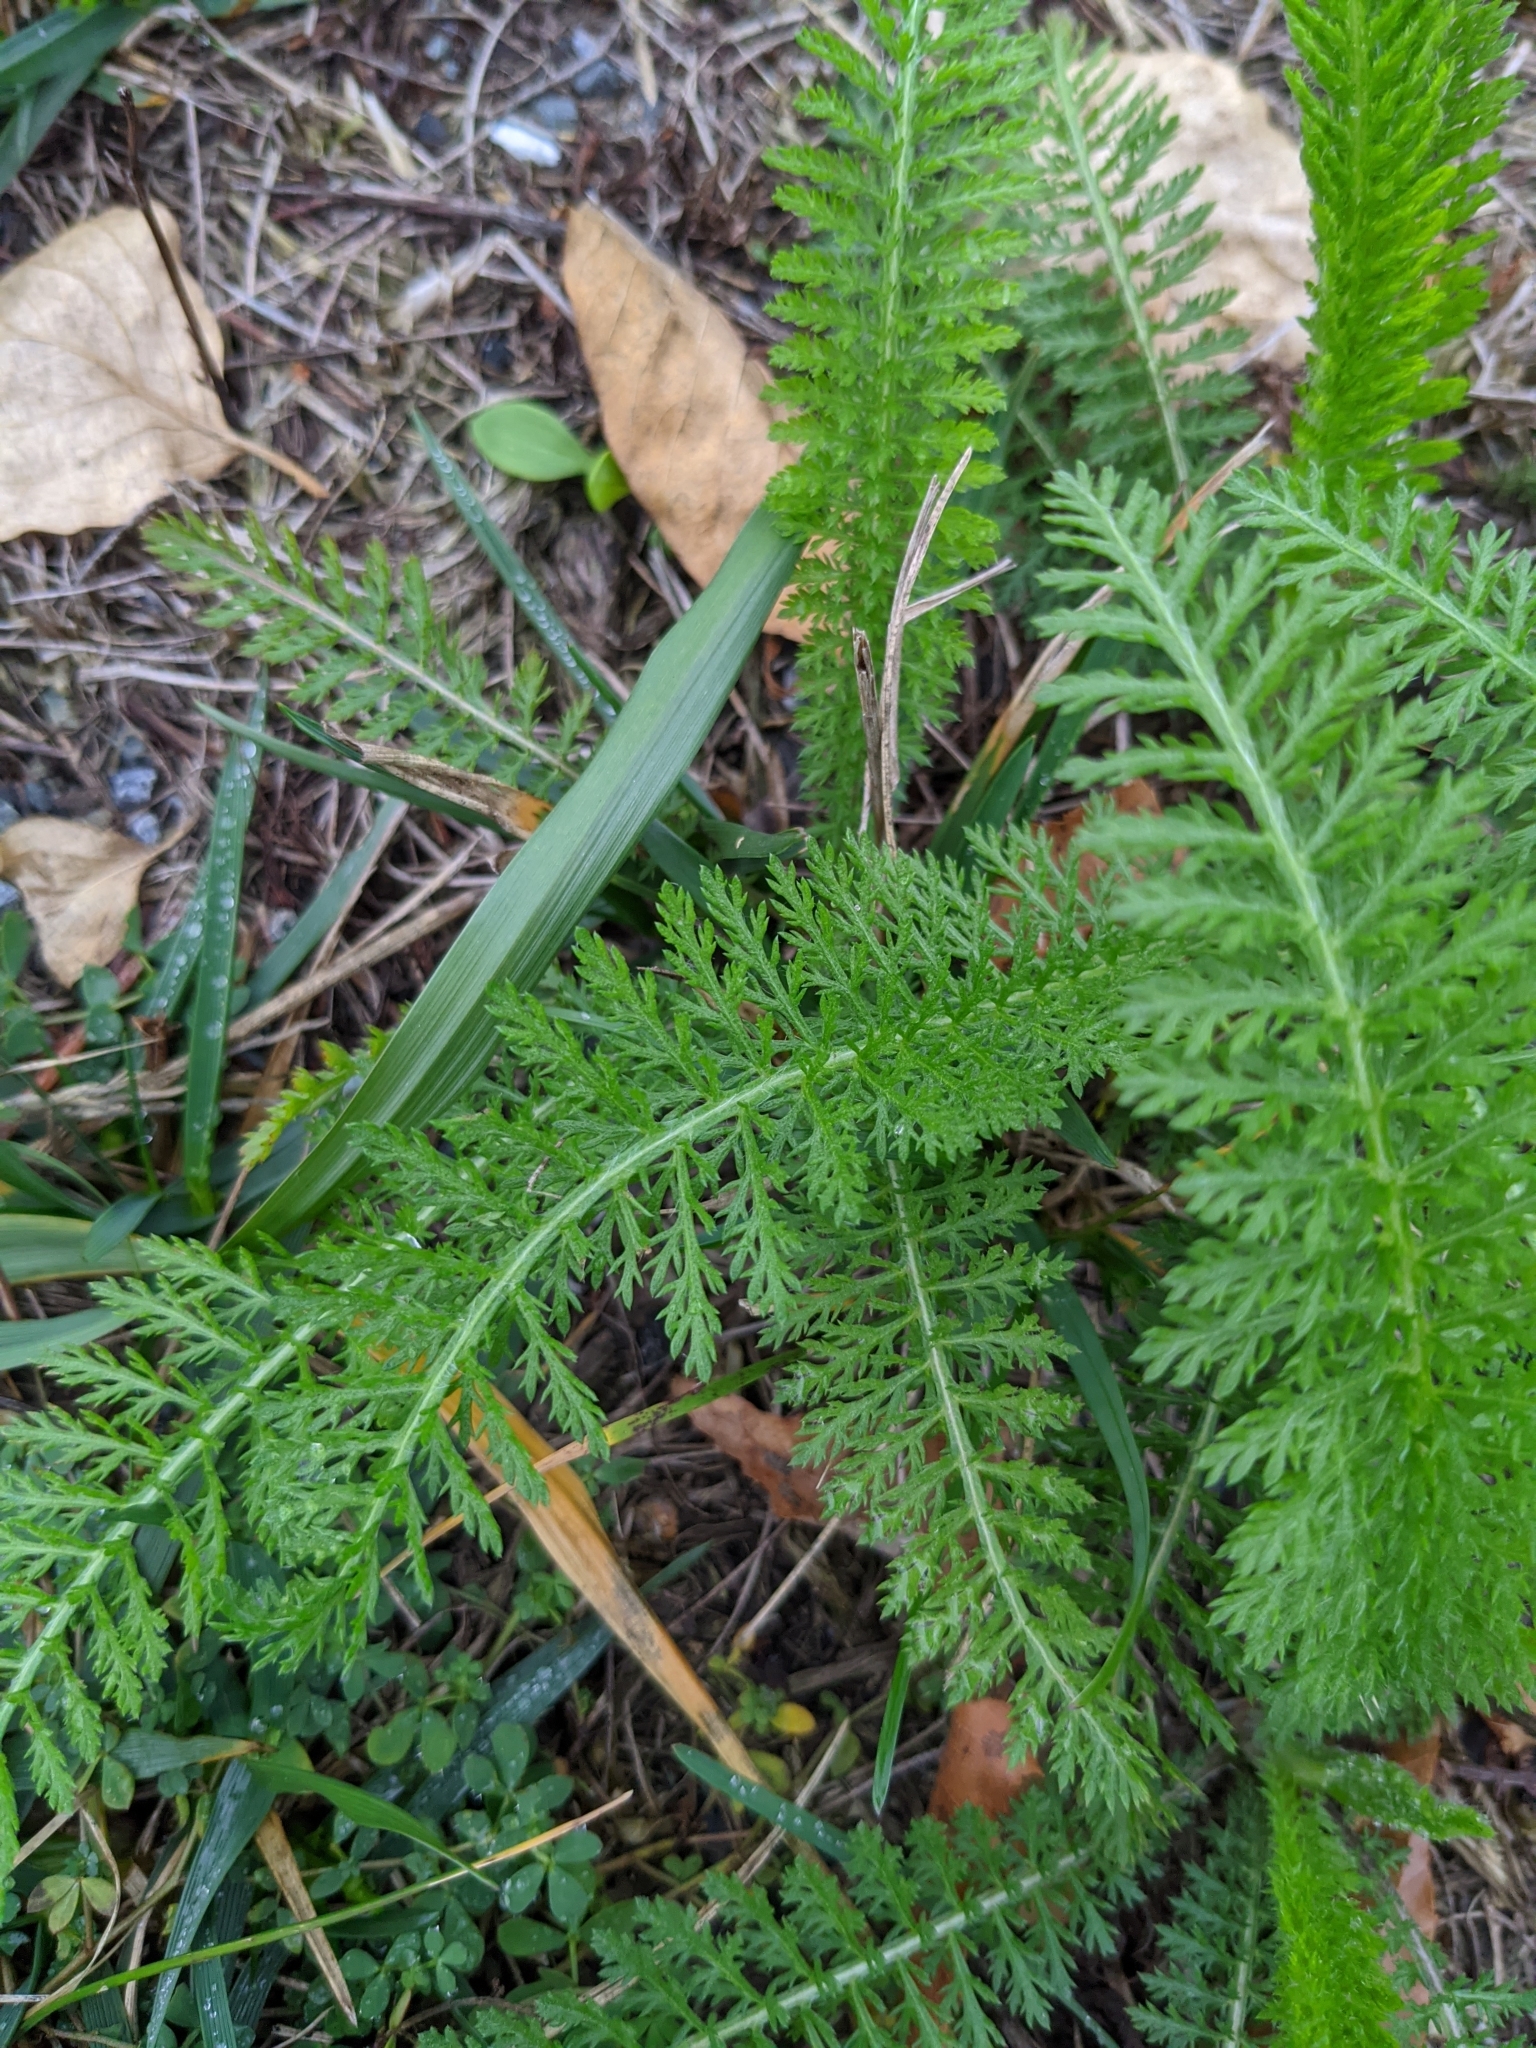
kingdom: Plantae
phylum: Tracheophyta
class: Magnoliopsida
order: Asterales
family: Asteraceae
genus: Achillea
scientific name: Achillea millefolium
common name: Yarrow
